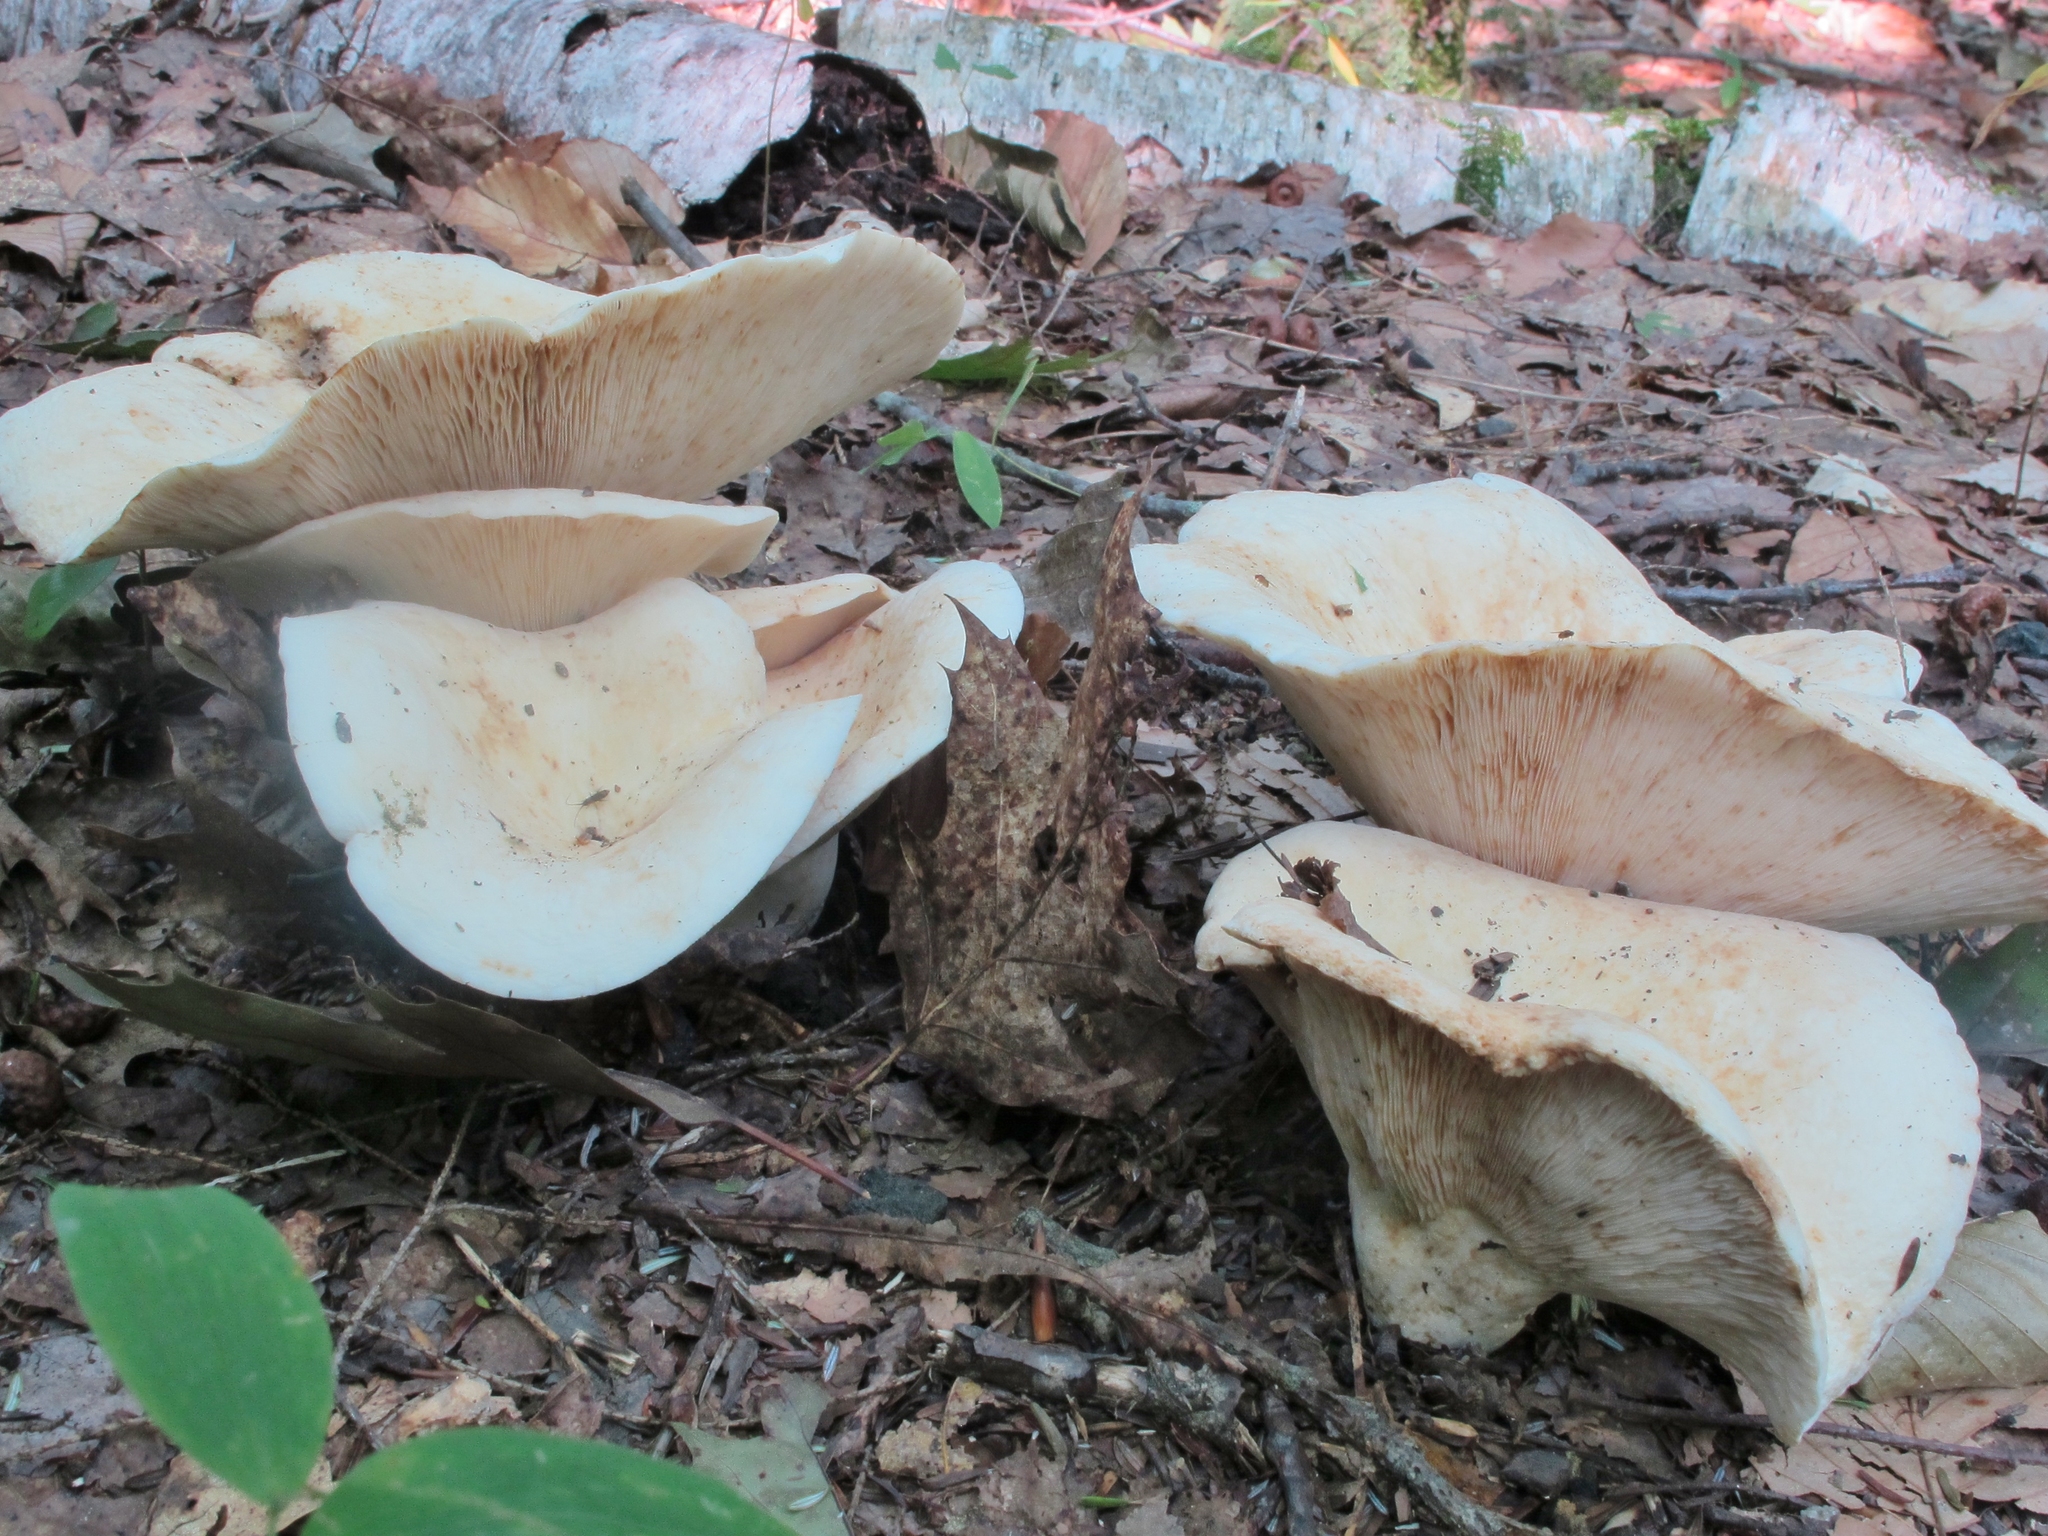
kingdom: Fungi
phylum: Basidiomycota
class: Agaricomycetes
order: Russulales
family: Russulaceae
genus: Lactifluus
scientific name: Lactifluus piperatus
